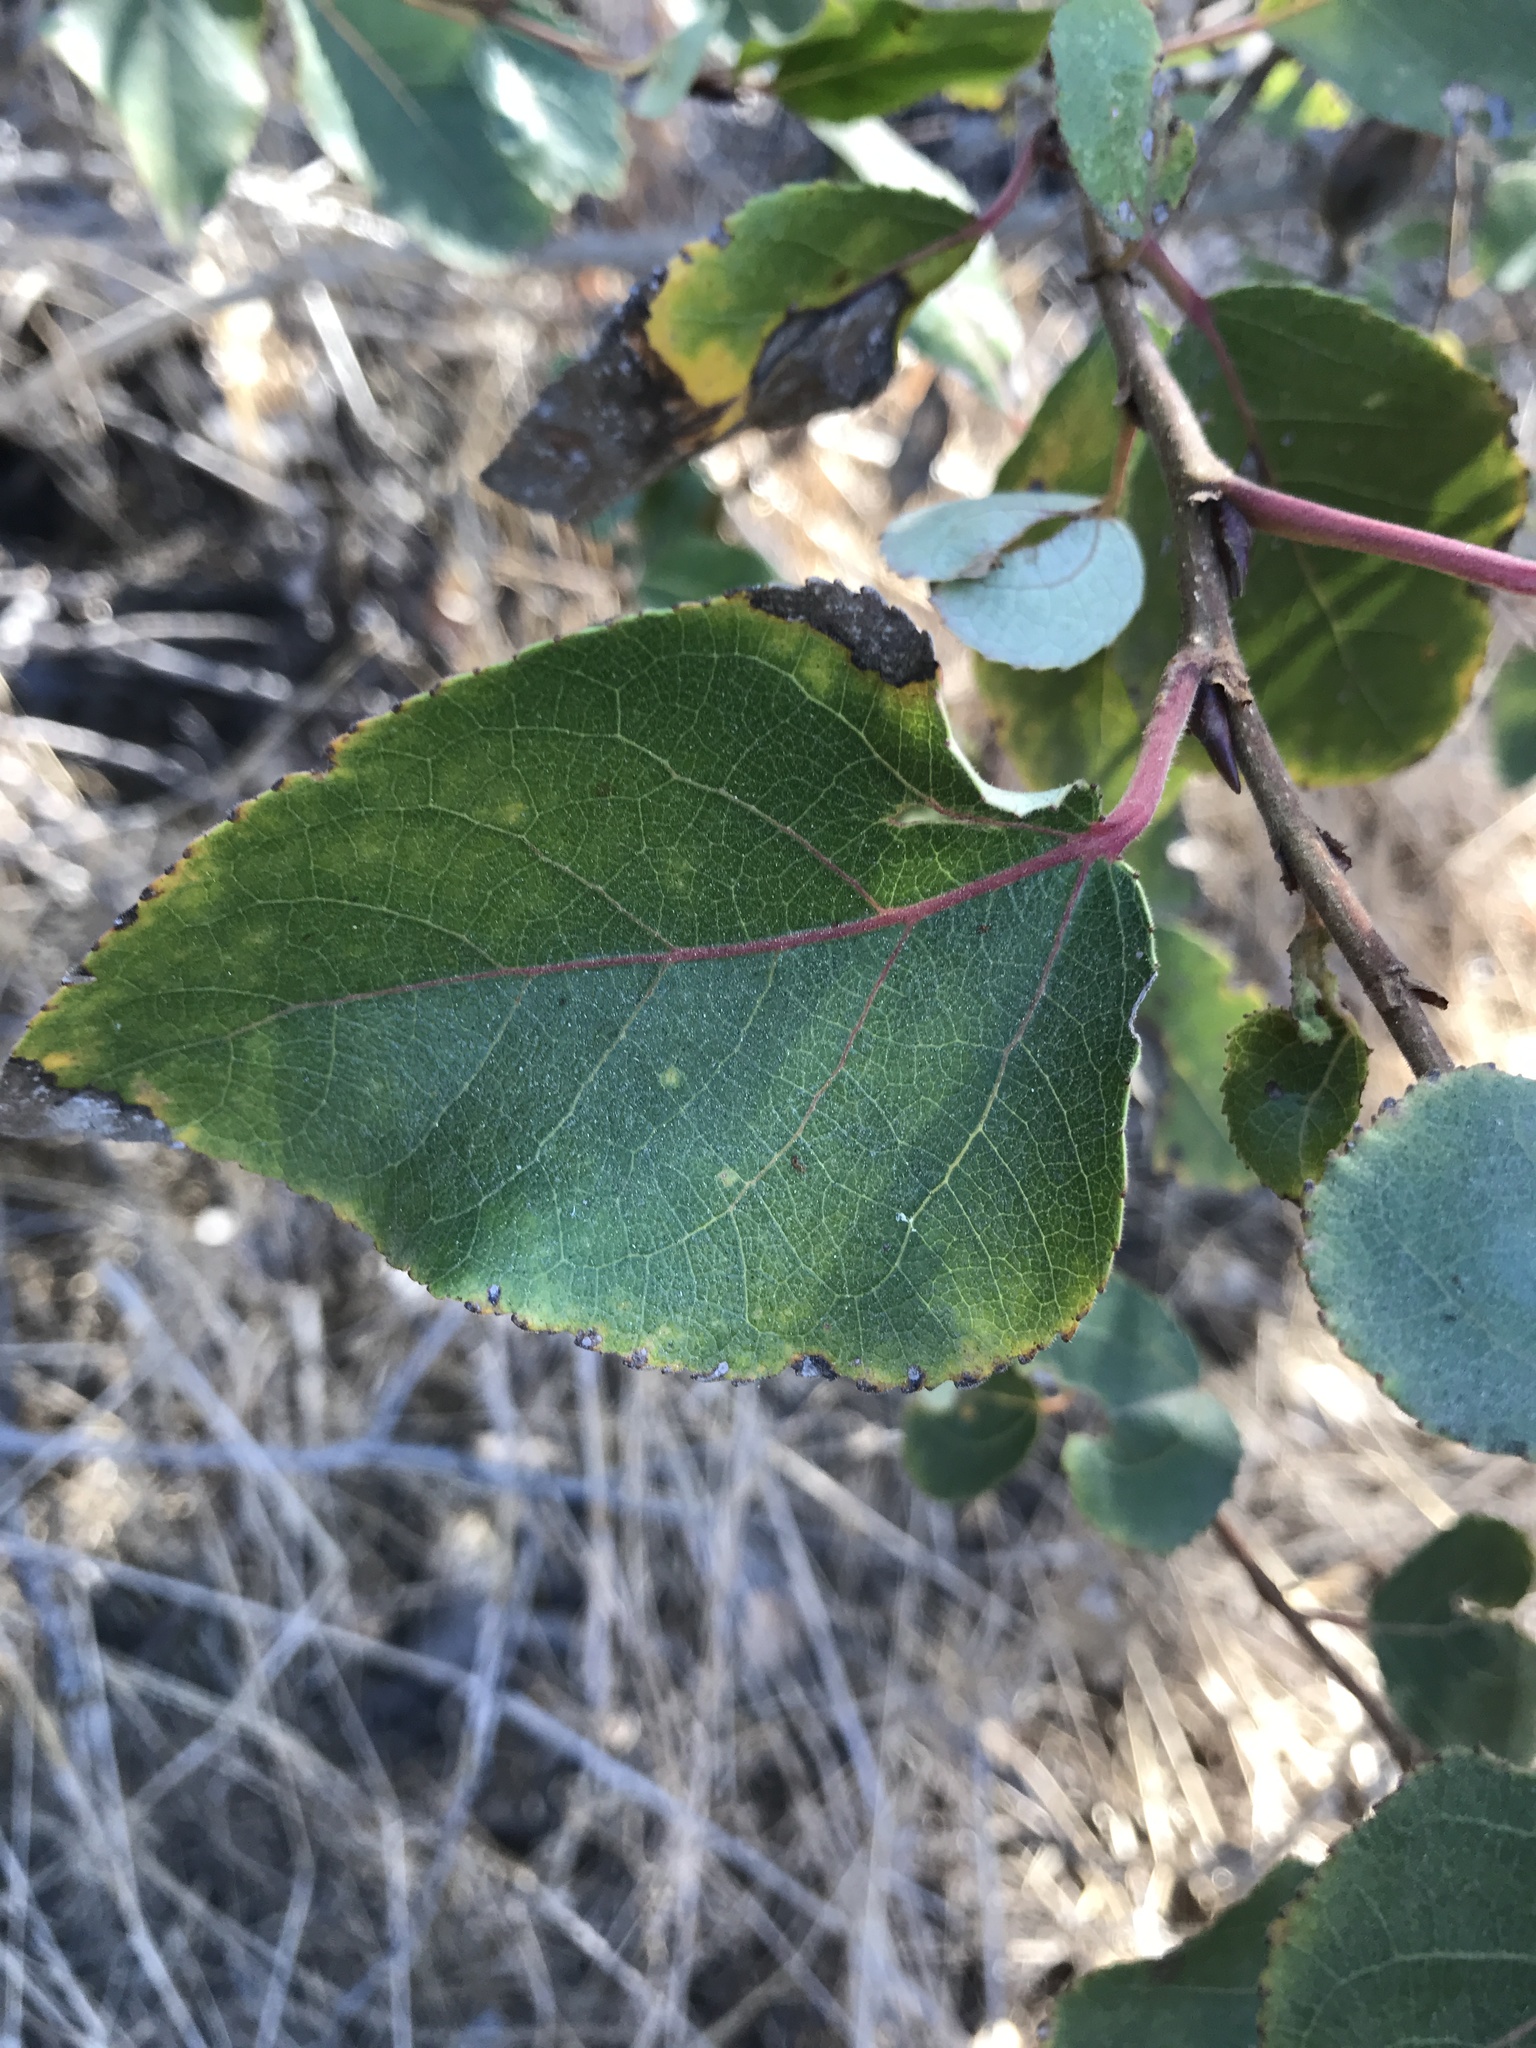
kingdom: Plantae
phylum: Tracheophyta
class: Magnoliopsida
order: Malpighiales
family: Salicaceae
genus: Populus
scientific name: Populus trichocarpa
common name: Black cottonwood
